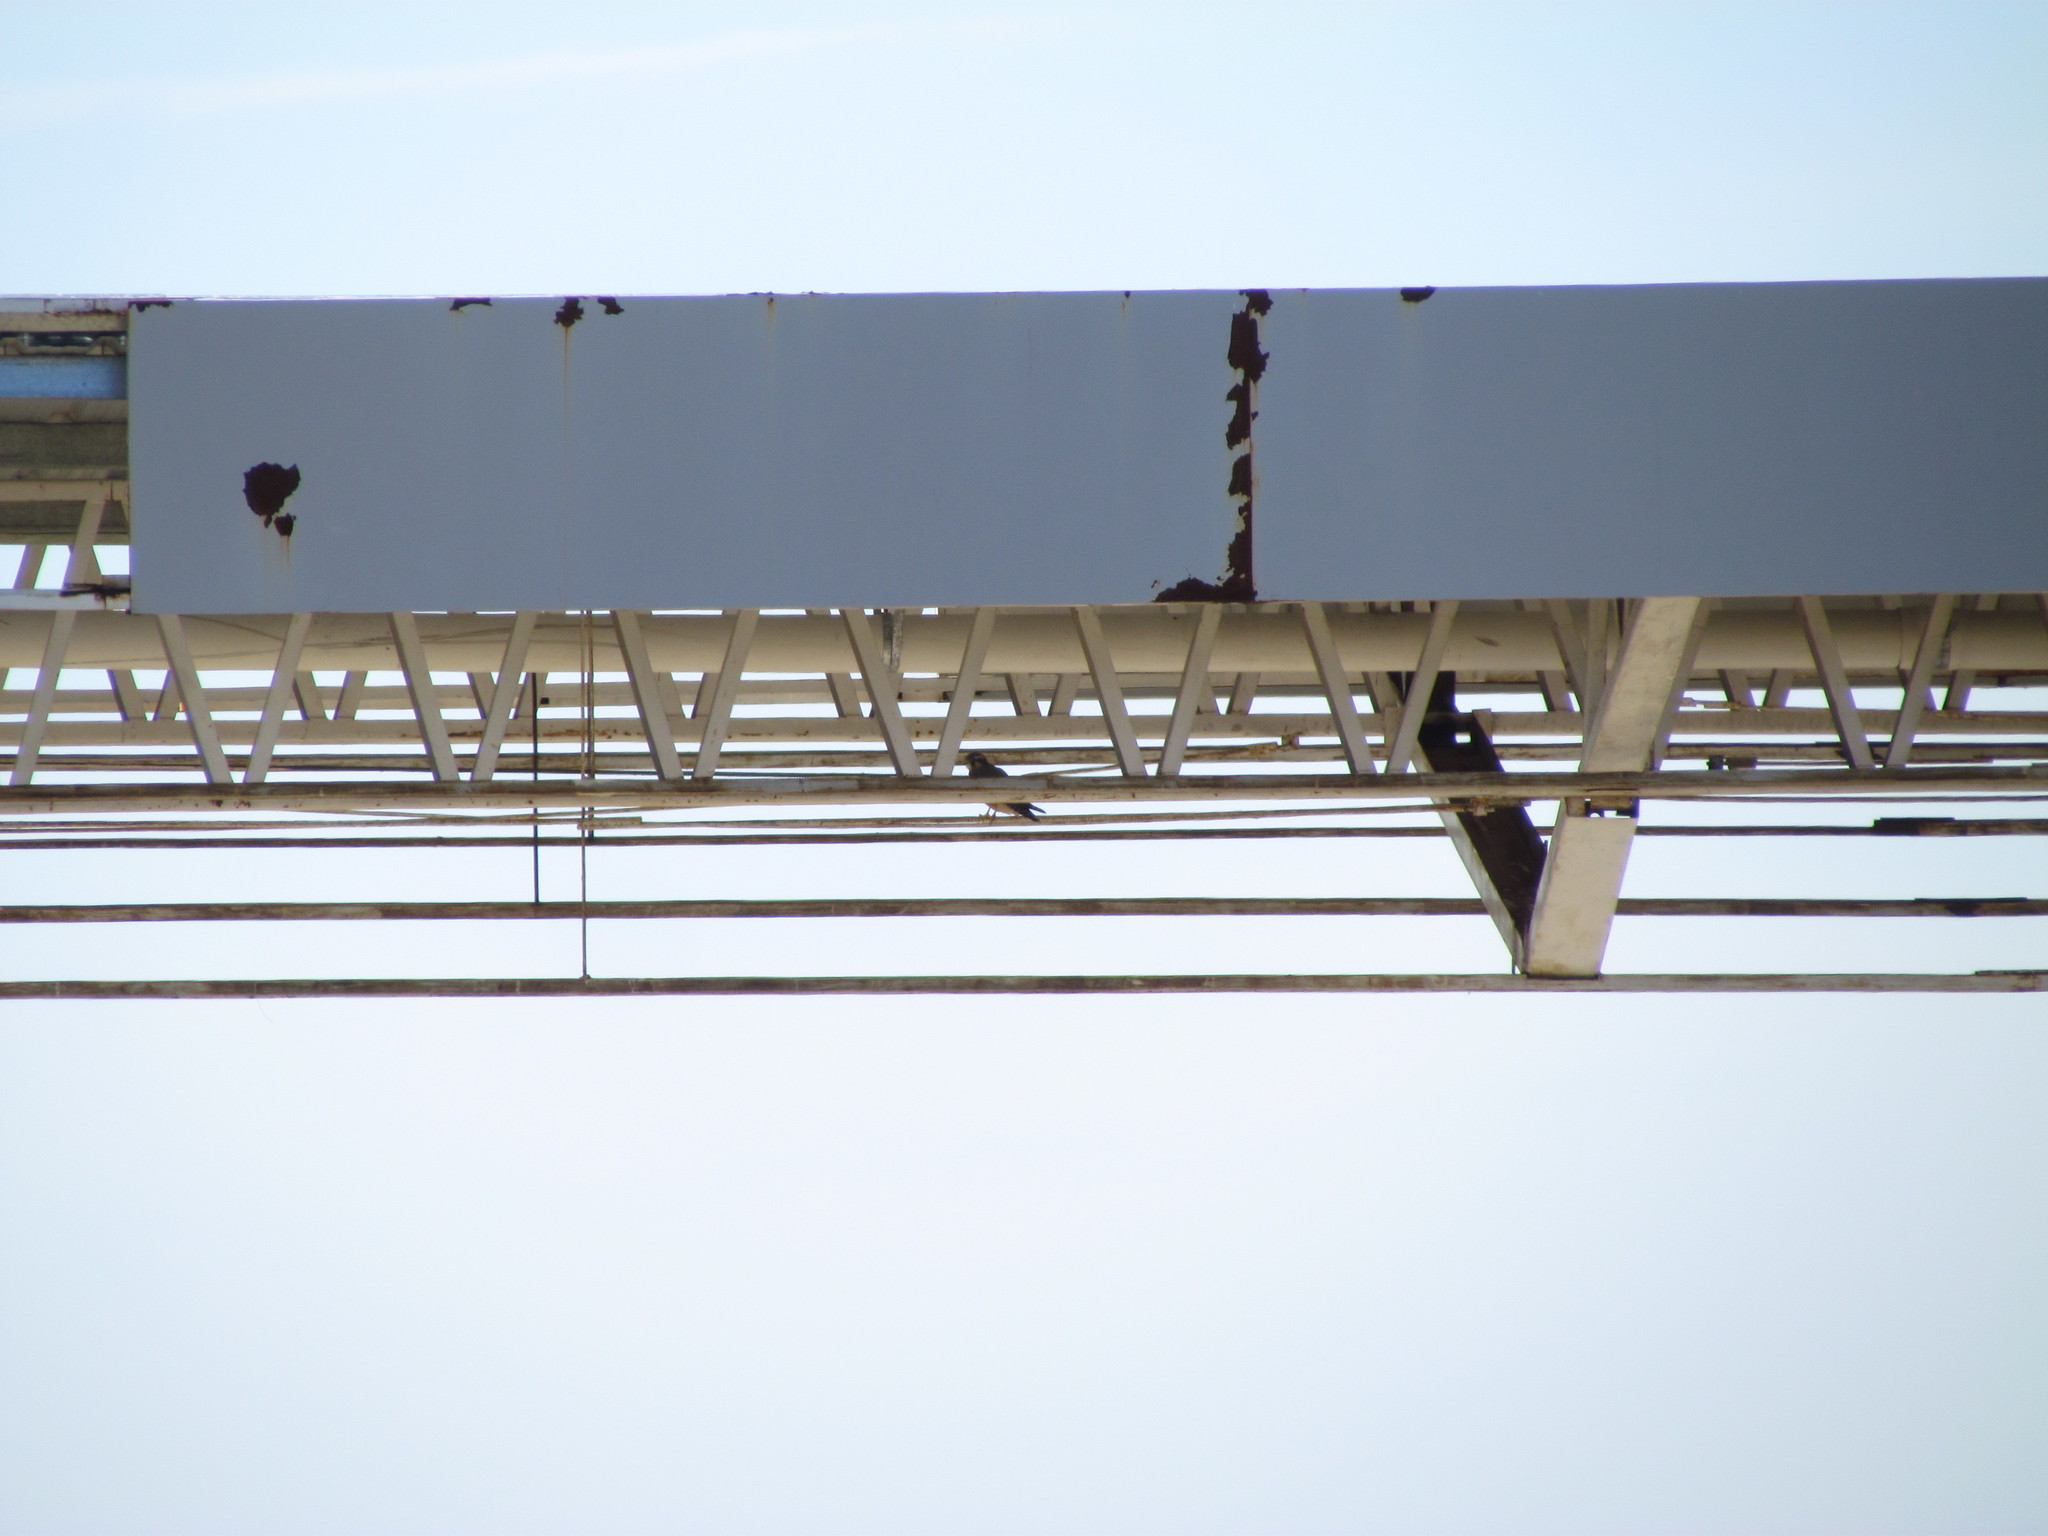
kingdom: Animalia
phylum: Chordata
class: Aves
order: Falconiformes
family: Falconidae
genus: Falco
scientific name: Falco femoralis
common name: Aplomado falcon
